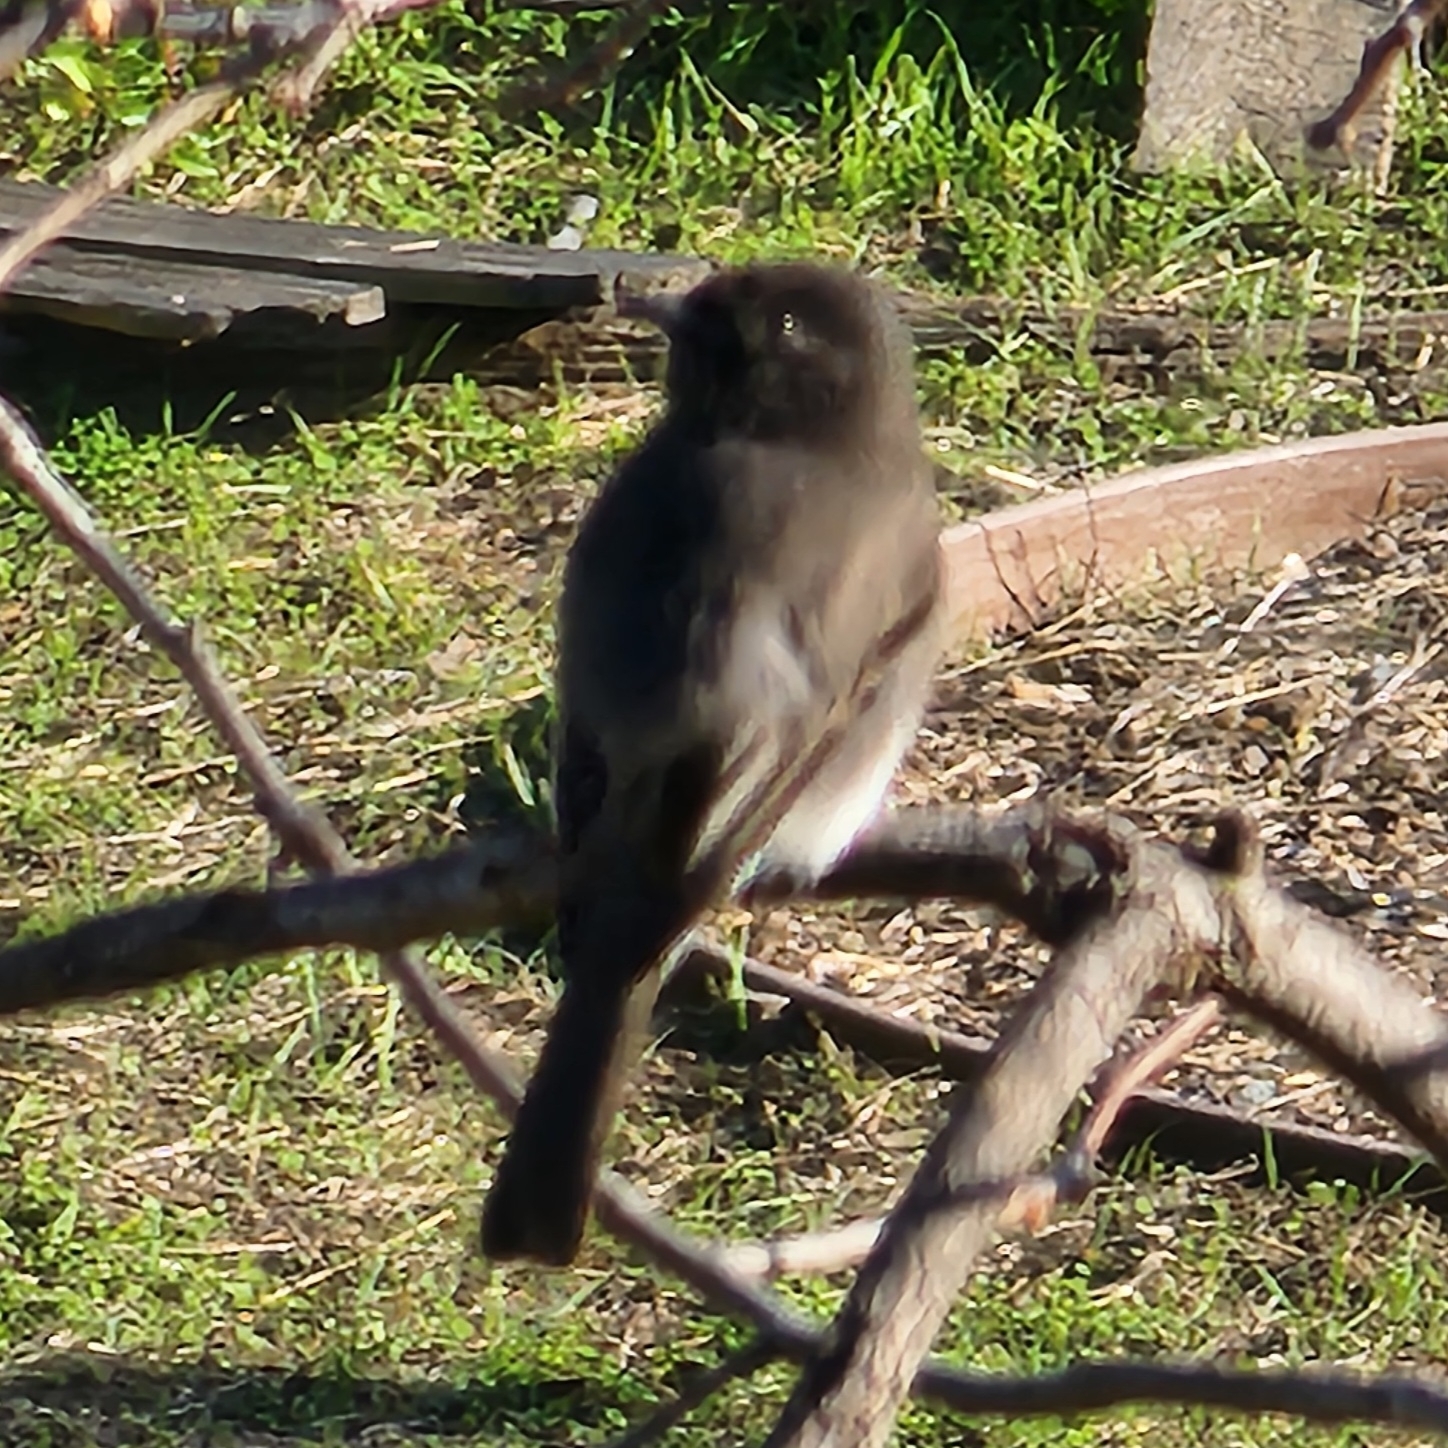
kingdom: Animalia
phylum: Chordata
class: Aves
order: Passeriformes
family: Tyrannidae
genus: Sayornis
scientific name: Sayornis nigricans
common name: Black phoebe
